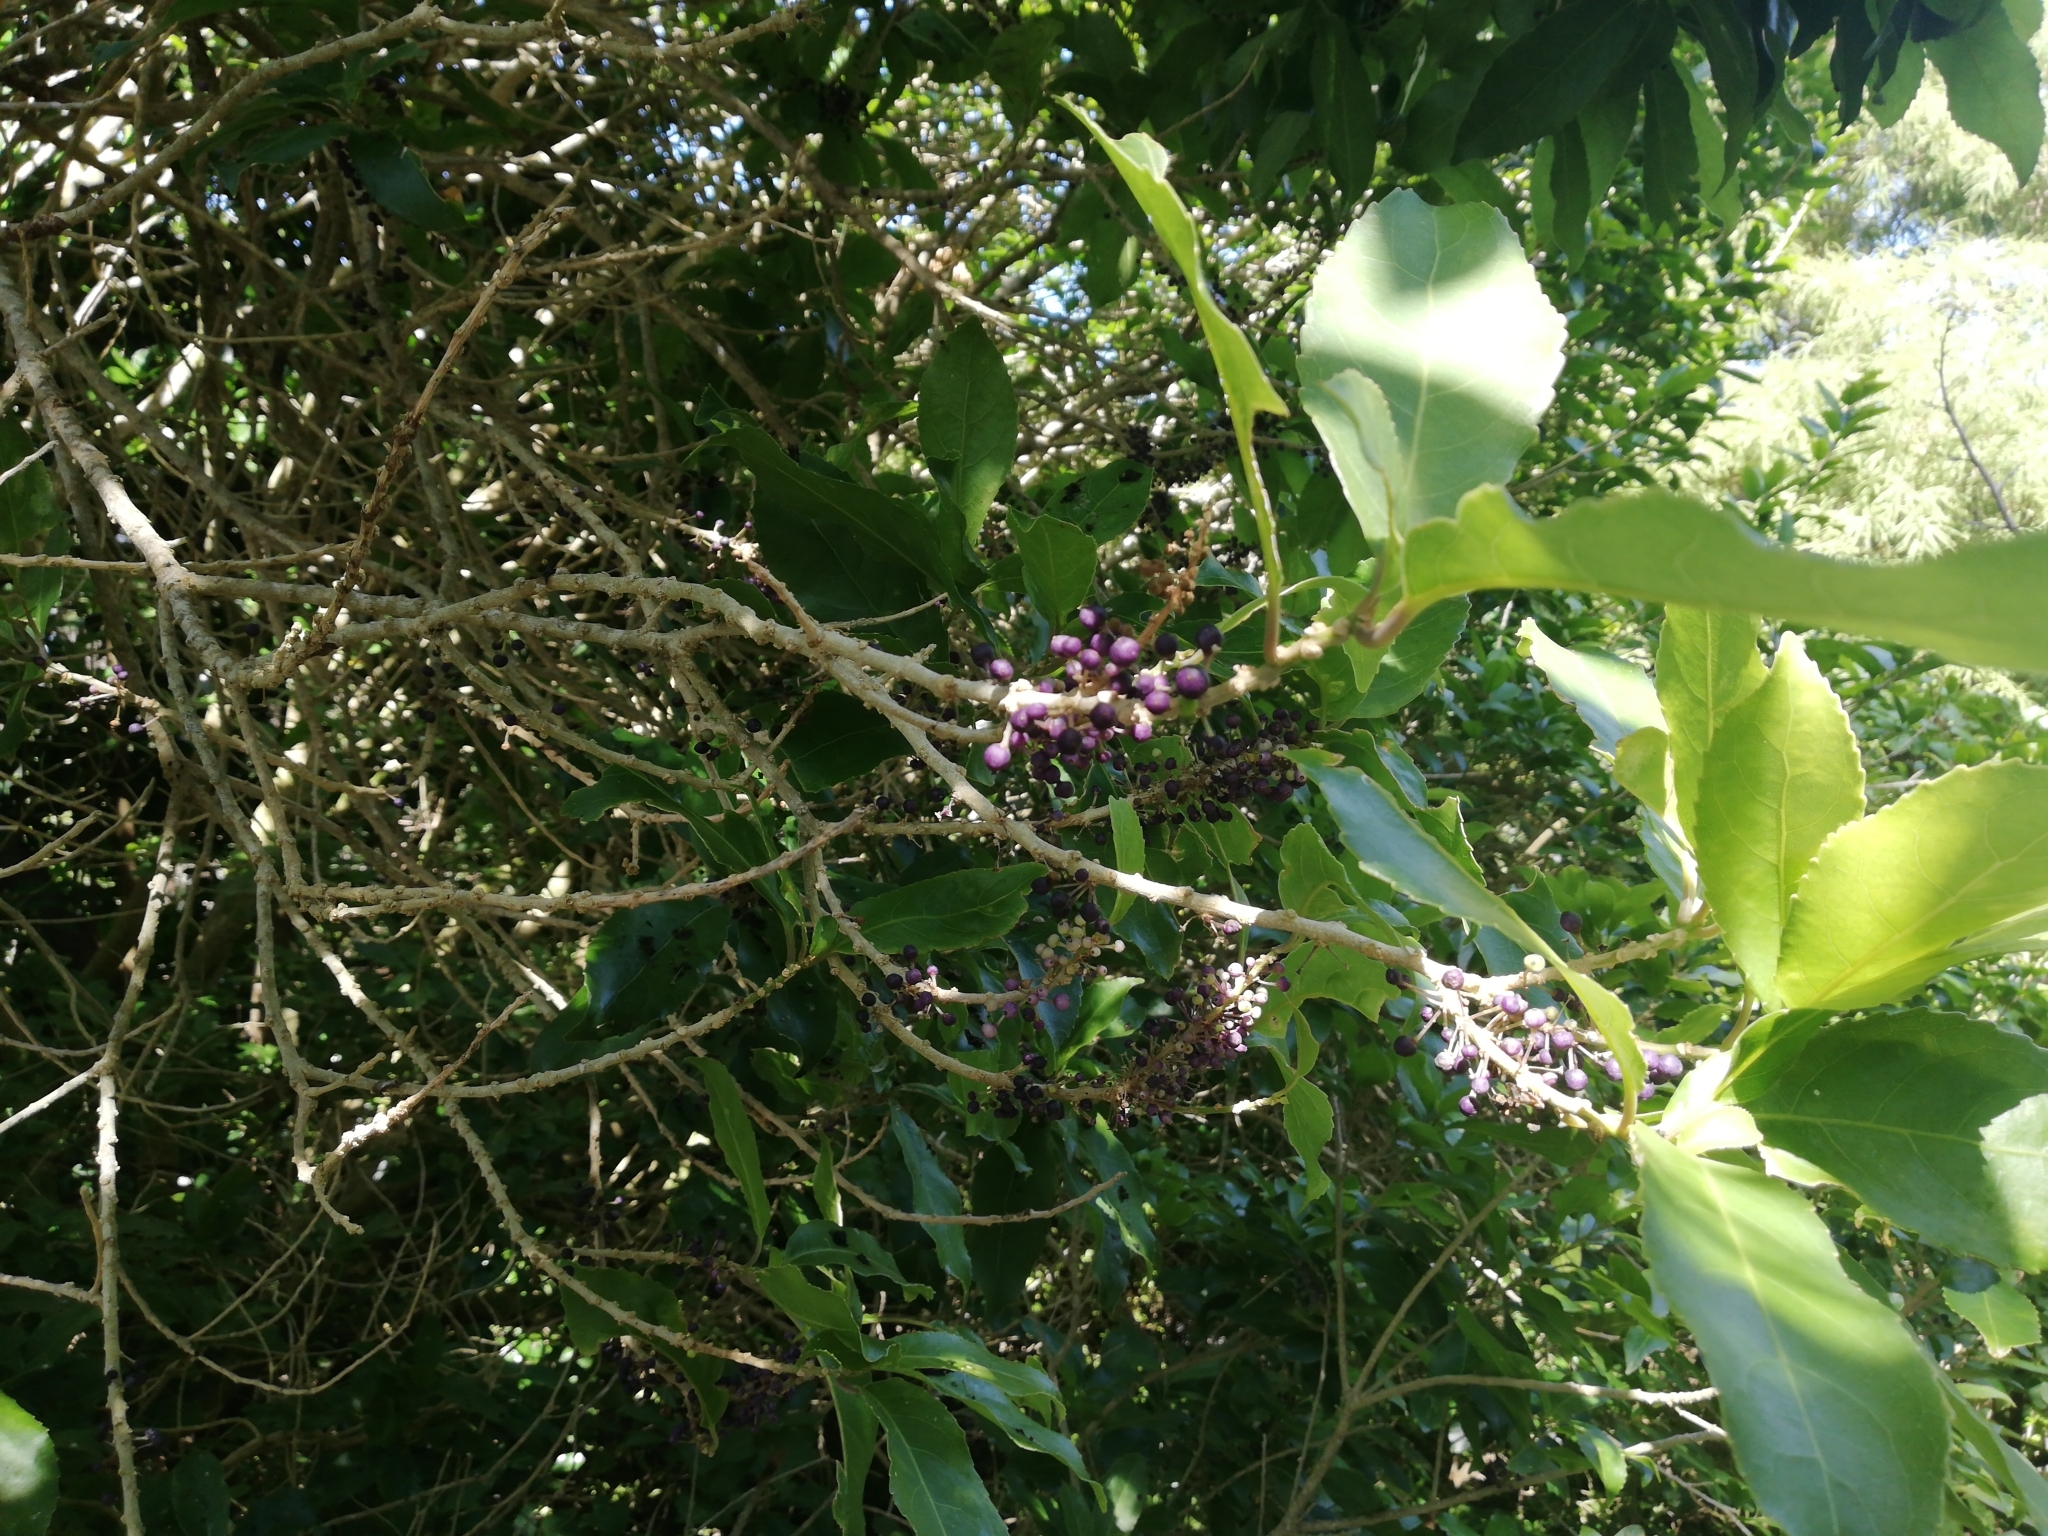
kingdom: Plantae
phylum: Tracheophyta
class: Magnoliopsida
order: Malpighiales
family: Violaceae
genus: Melicytus
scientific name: Melicytus ramiflorus
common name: Mahoe
